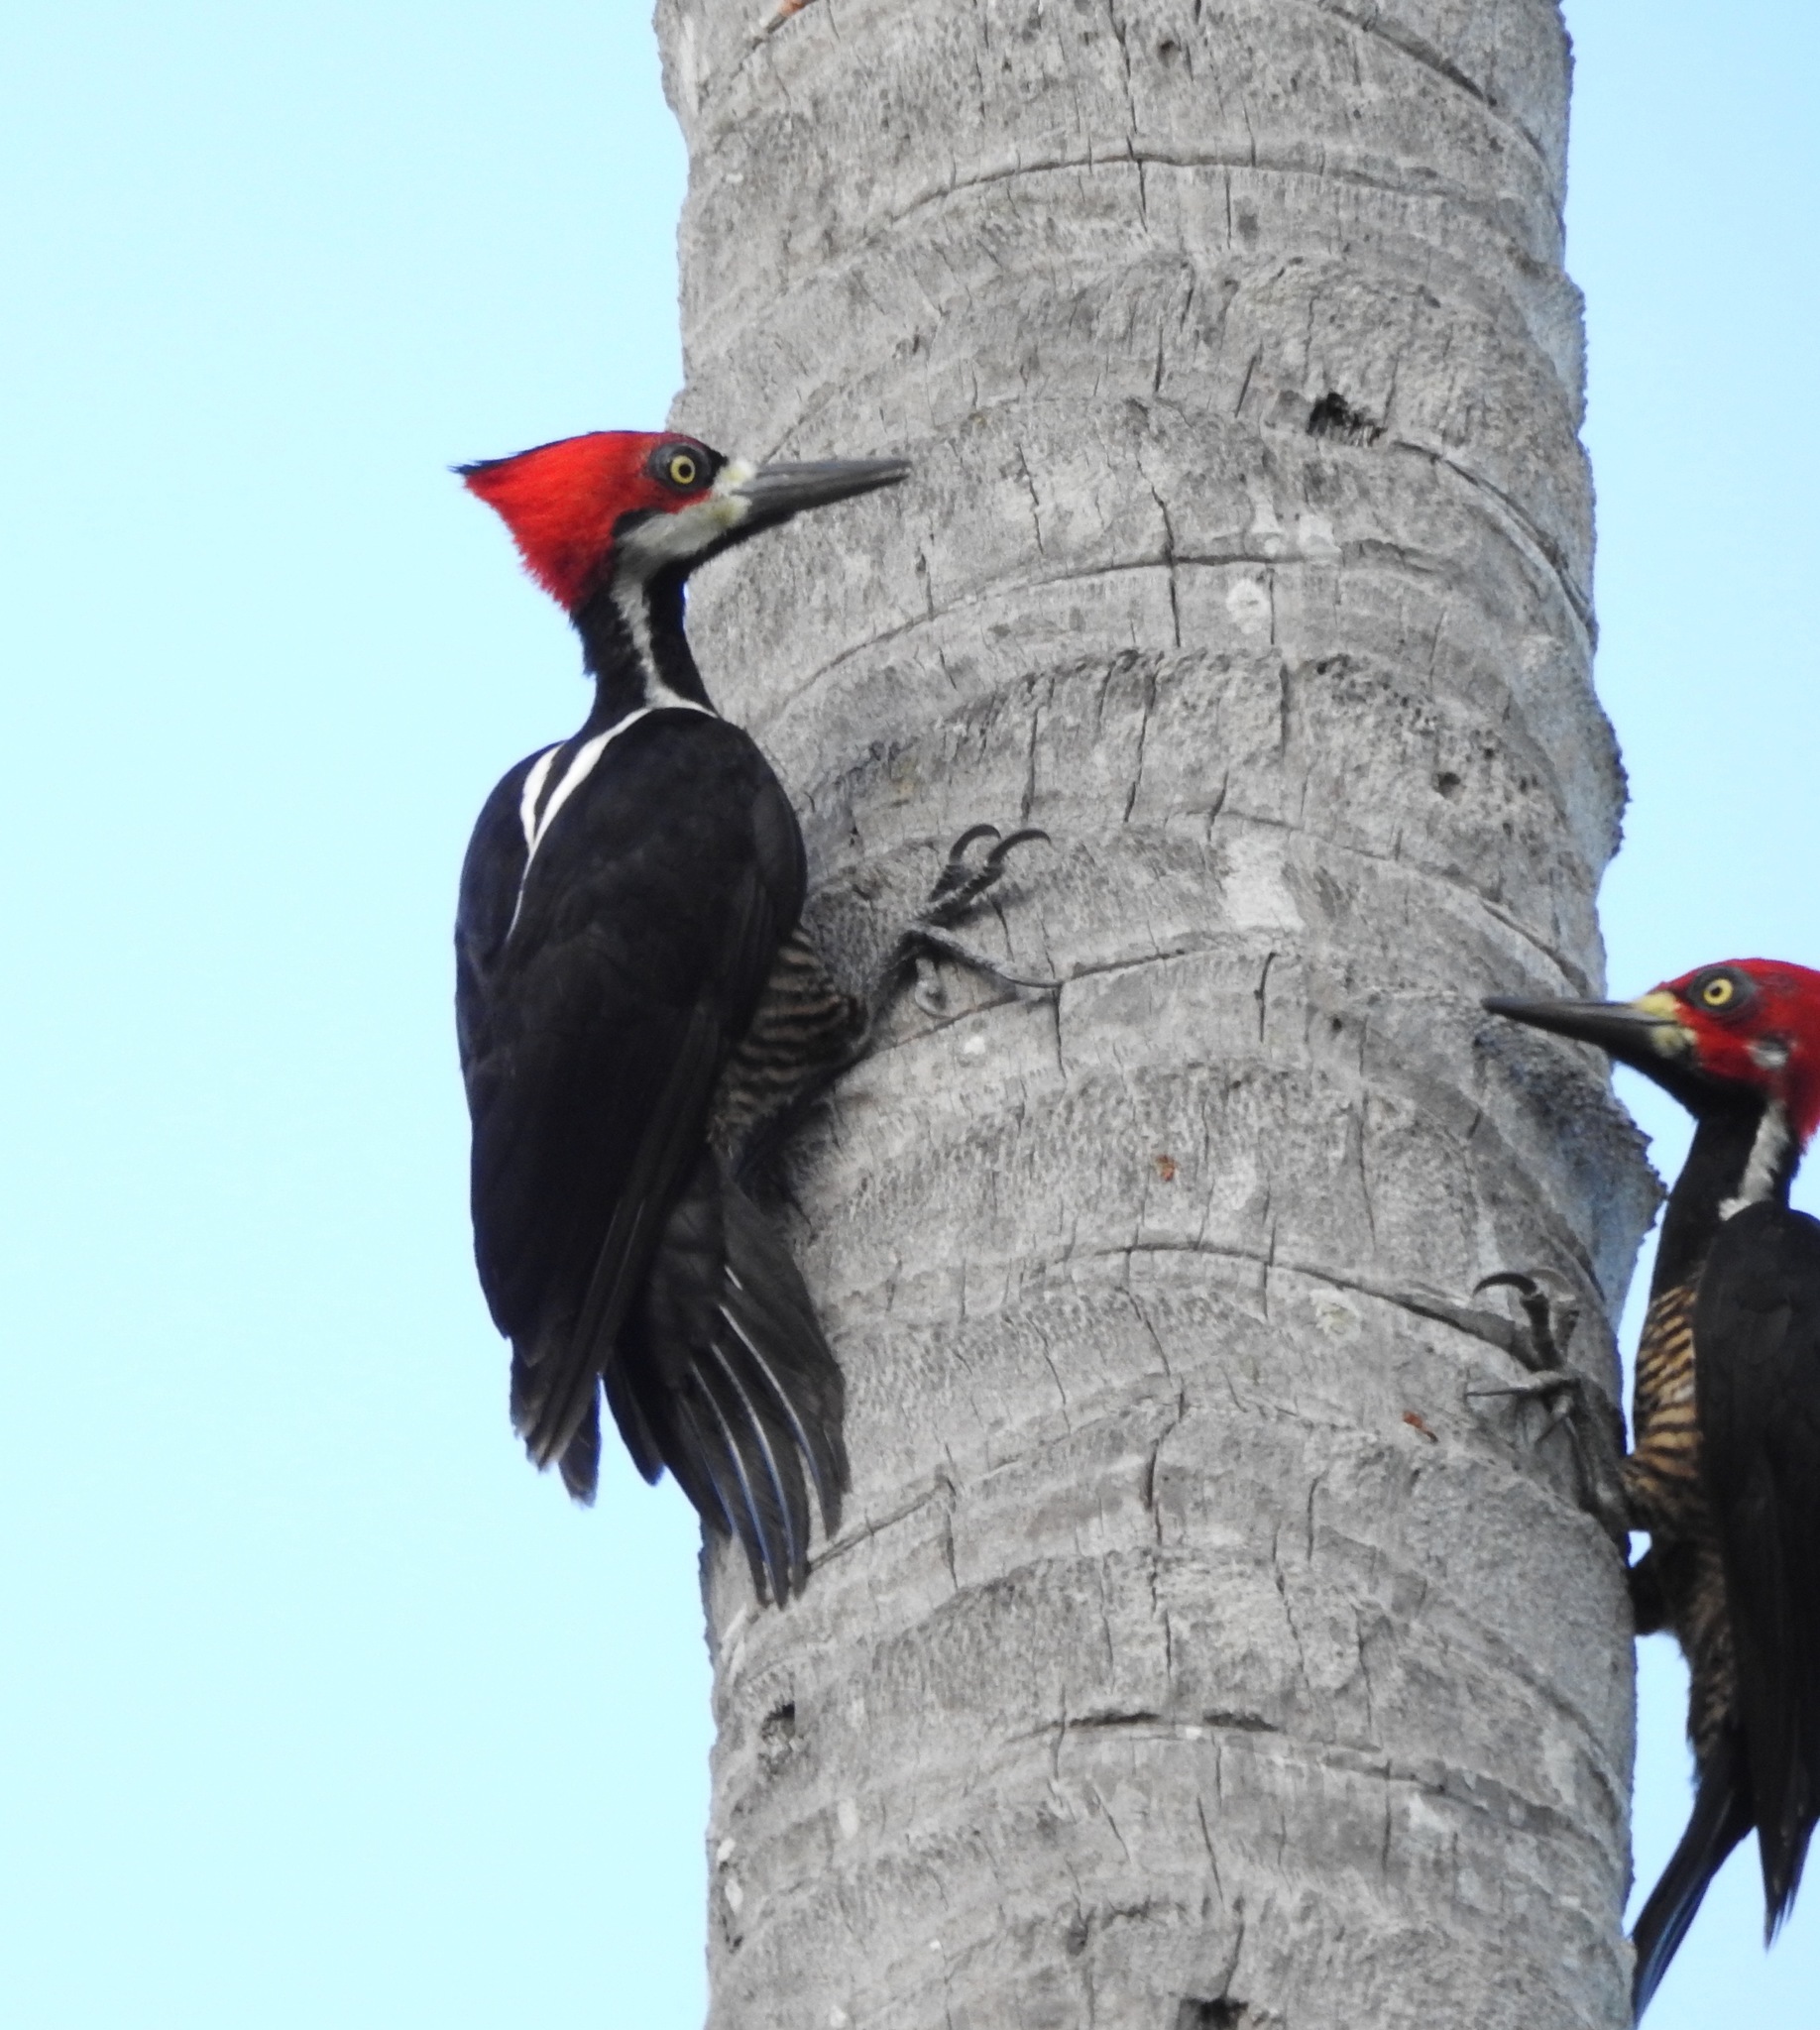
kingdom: Animalia
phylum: Chordata
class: Aves
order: Piciformes
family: Picidae
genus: Campephilus
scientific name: Campephilus melanoleucos
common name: Crimson-crested woodpecker
